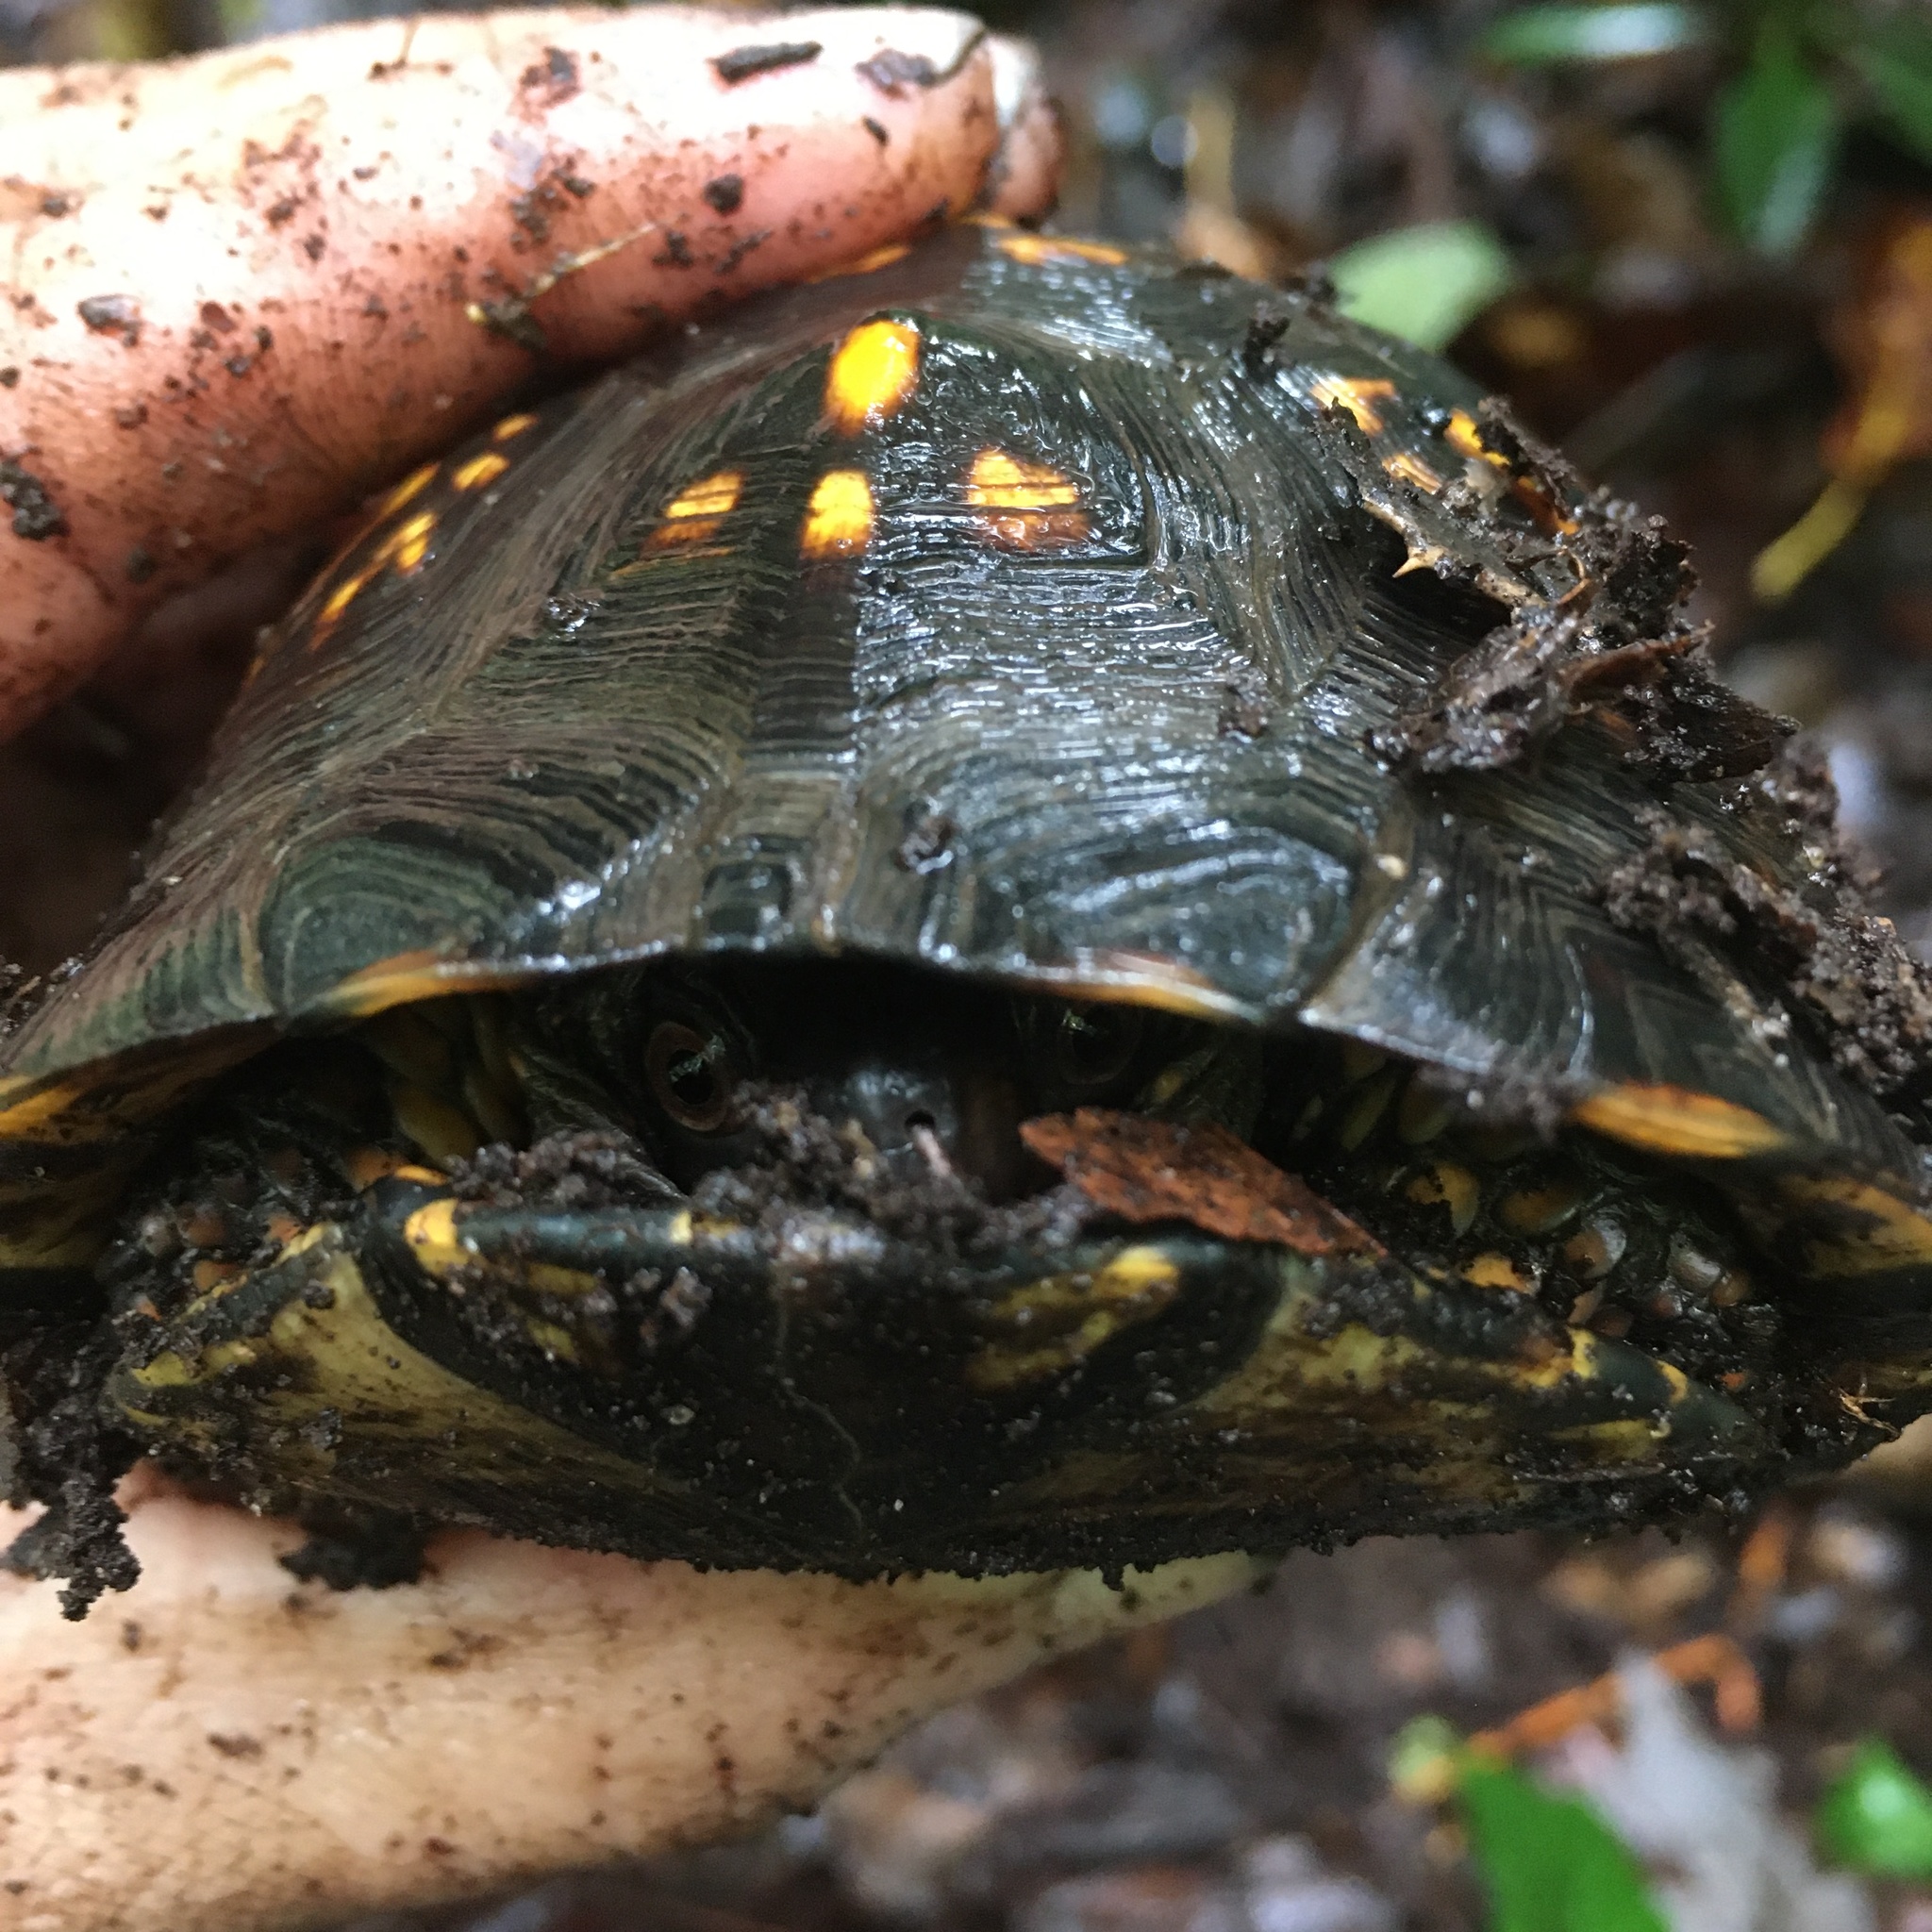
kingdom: Animalia
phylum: Chordata
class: Testudines
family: Emydidae
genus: Terrapene
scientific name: Terrapene carolina
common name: Common box turtle
